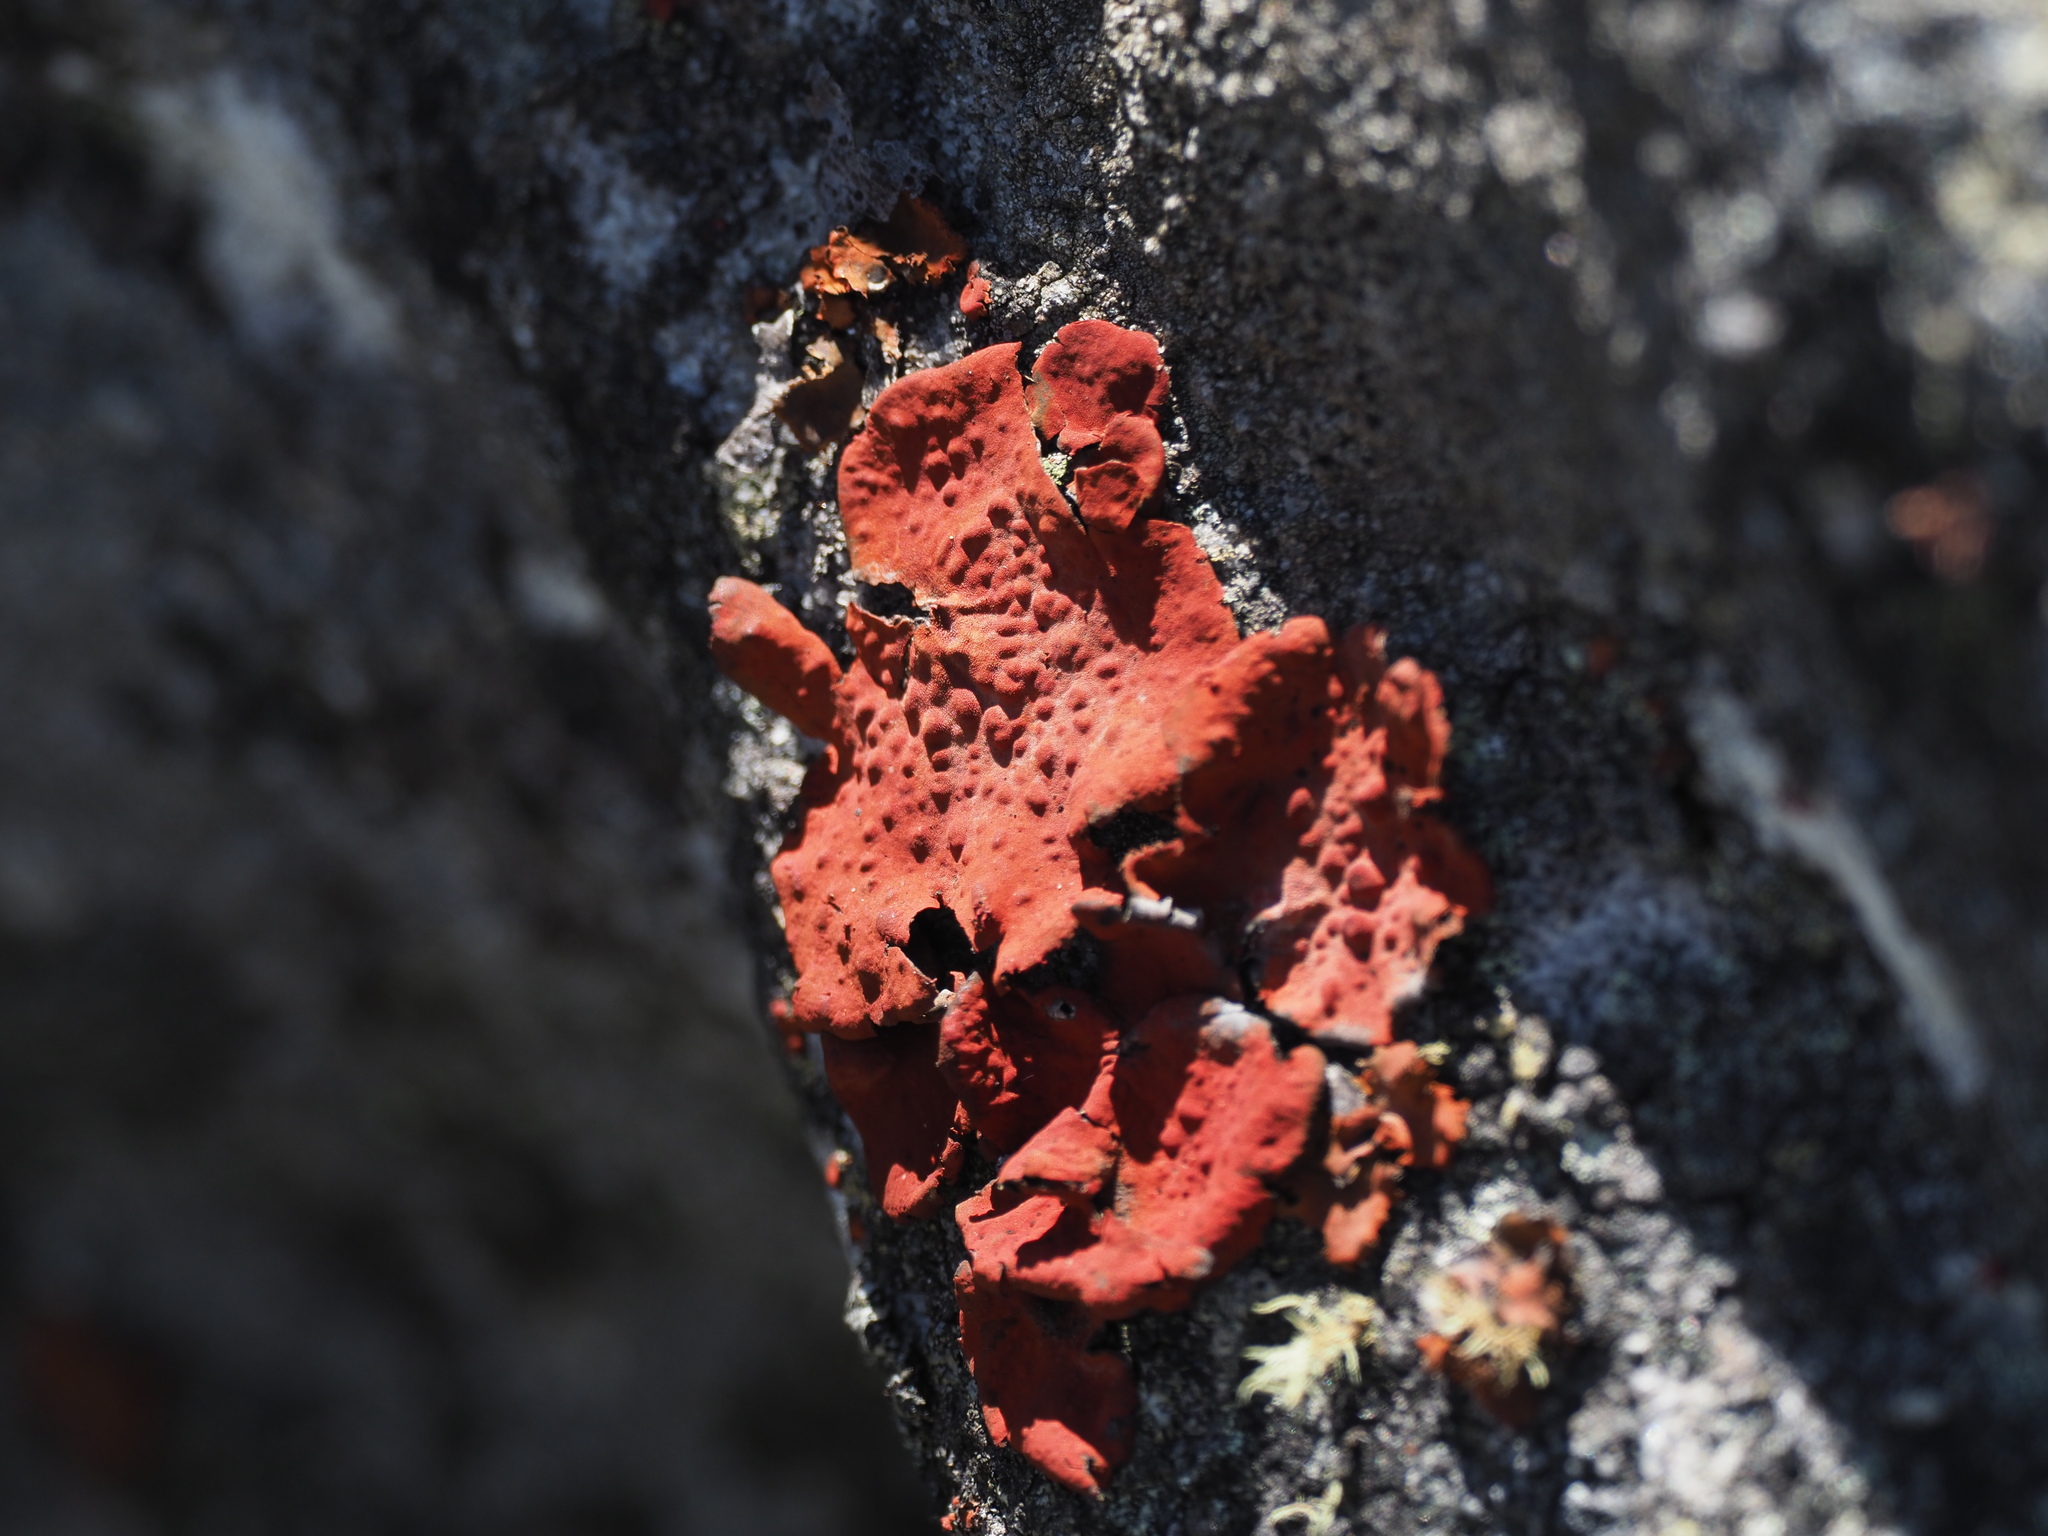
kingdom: Fungi
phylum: Ascomycota
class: Lecanoromycetes
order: Umbilicariales
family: Umbilicariaceae
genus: Lasallia
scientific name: Lasallia rubiginosa
